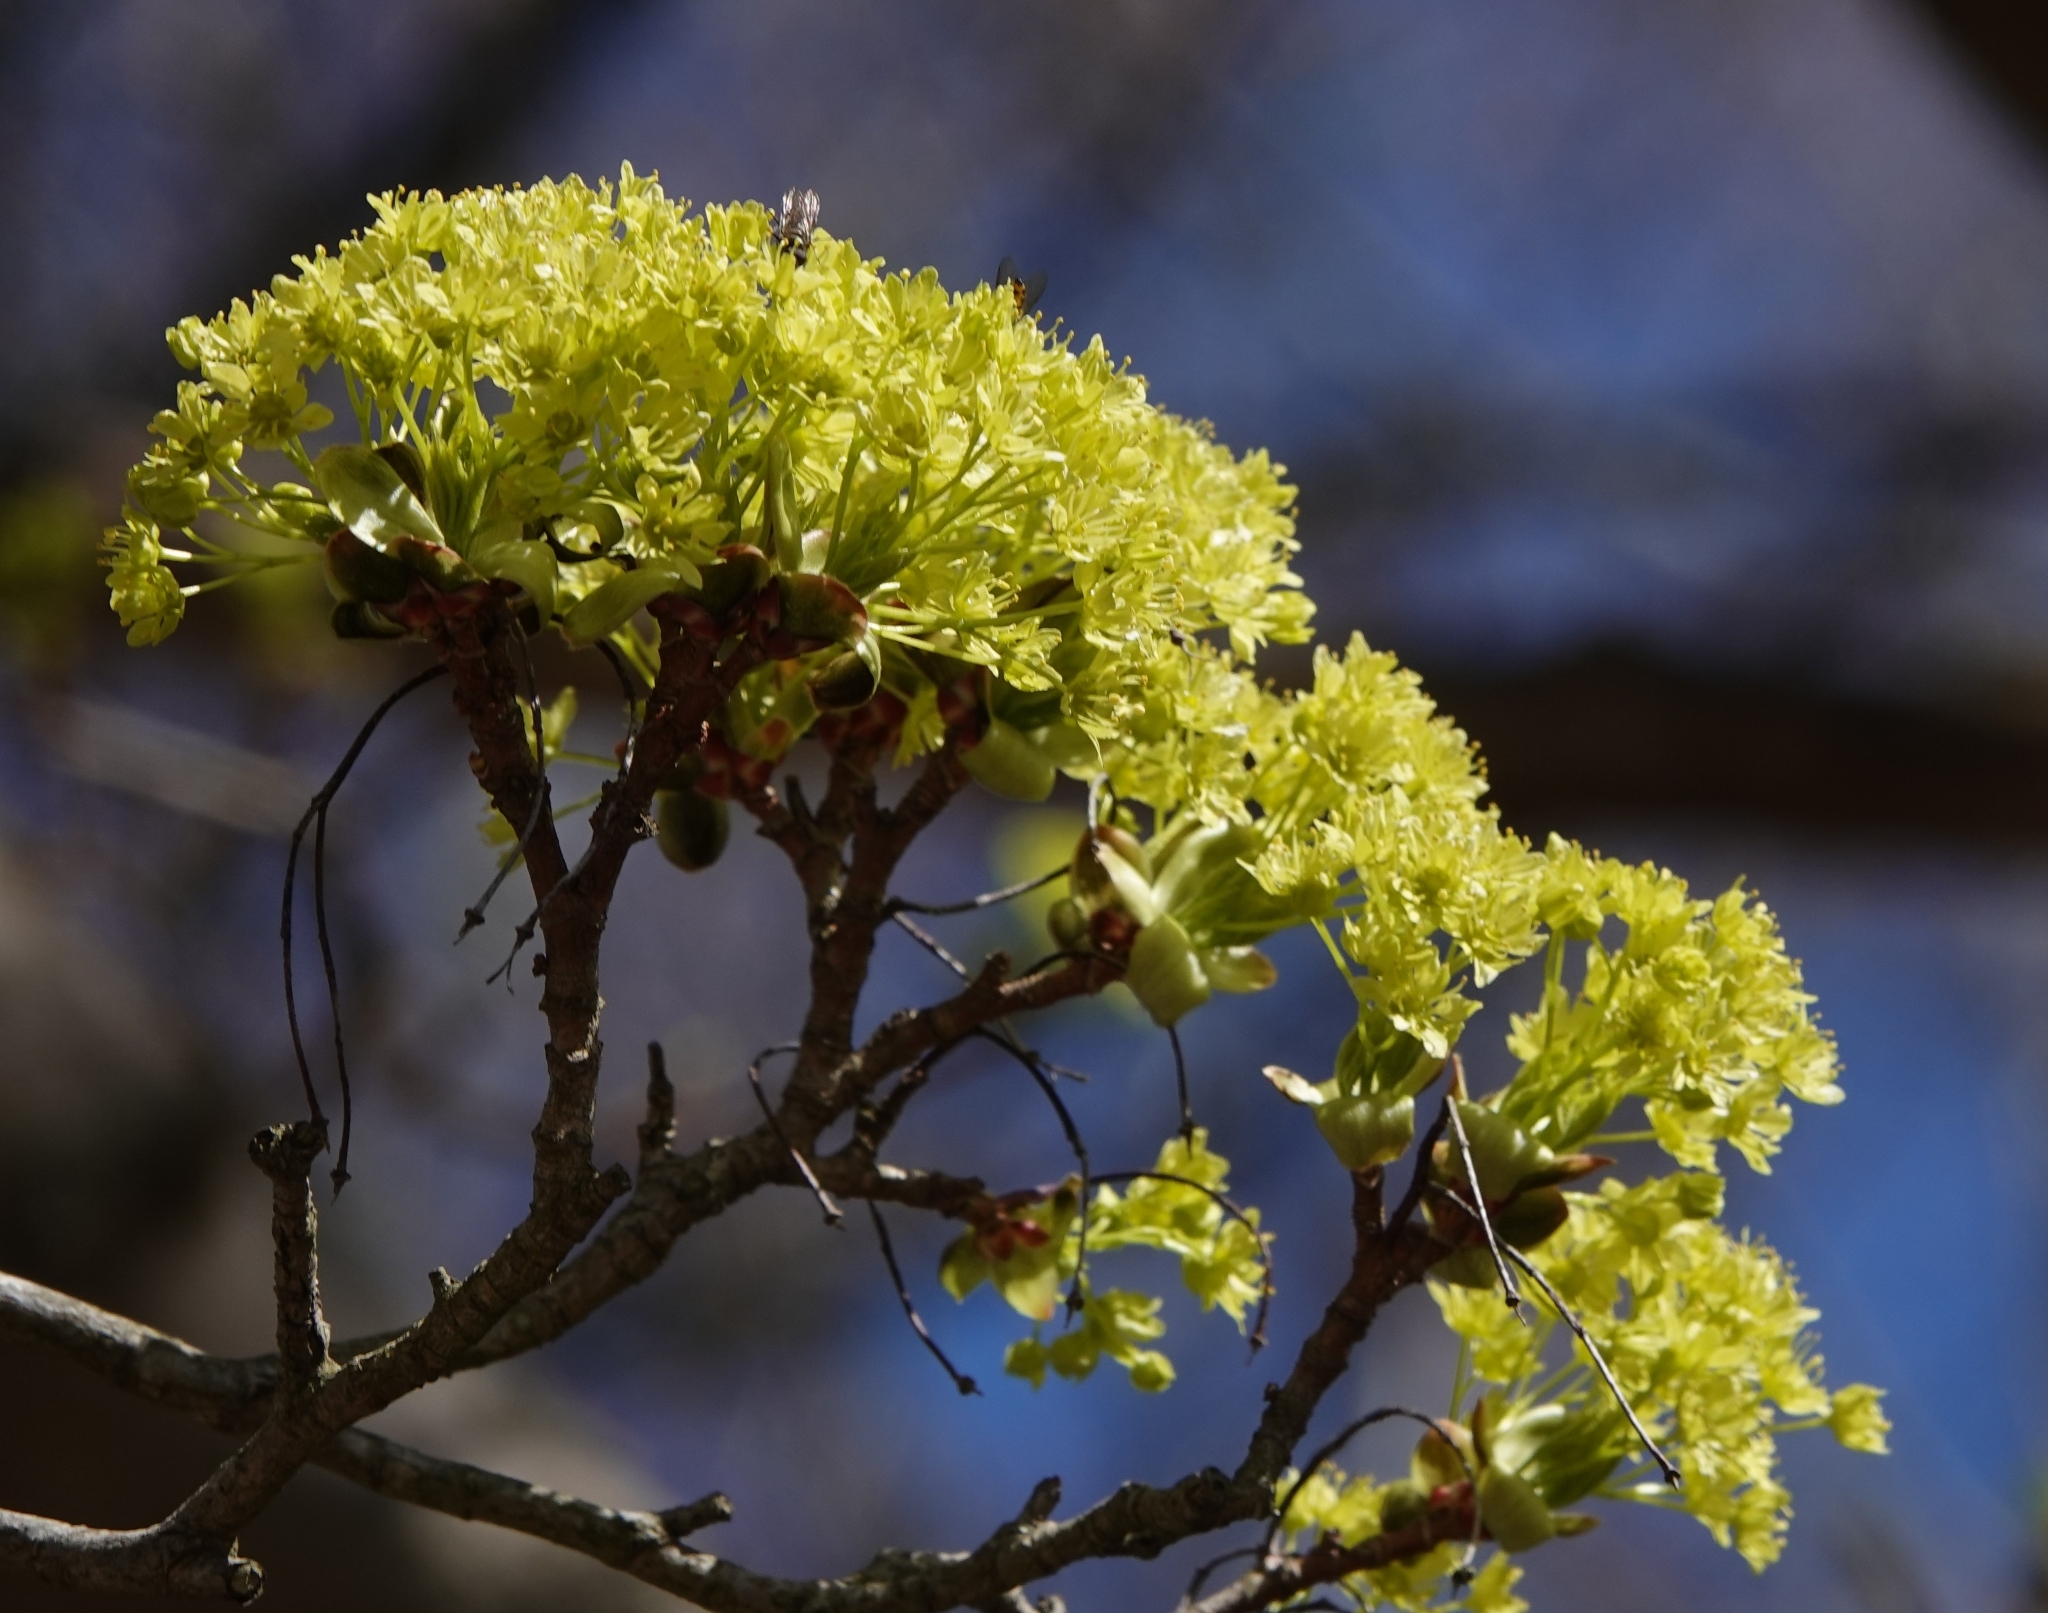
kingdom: Plantae
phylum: Tracheophyta
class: Magnoliopsida
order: Sapindales
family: Sapindaceae
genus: Acer
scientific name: Acer platanoides
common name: Norway maple
